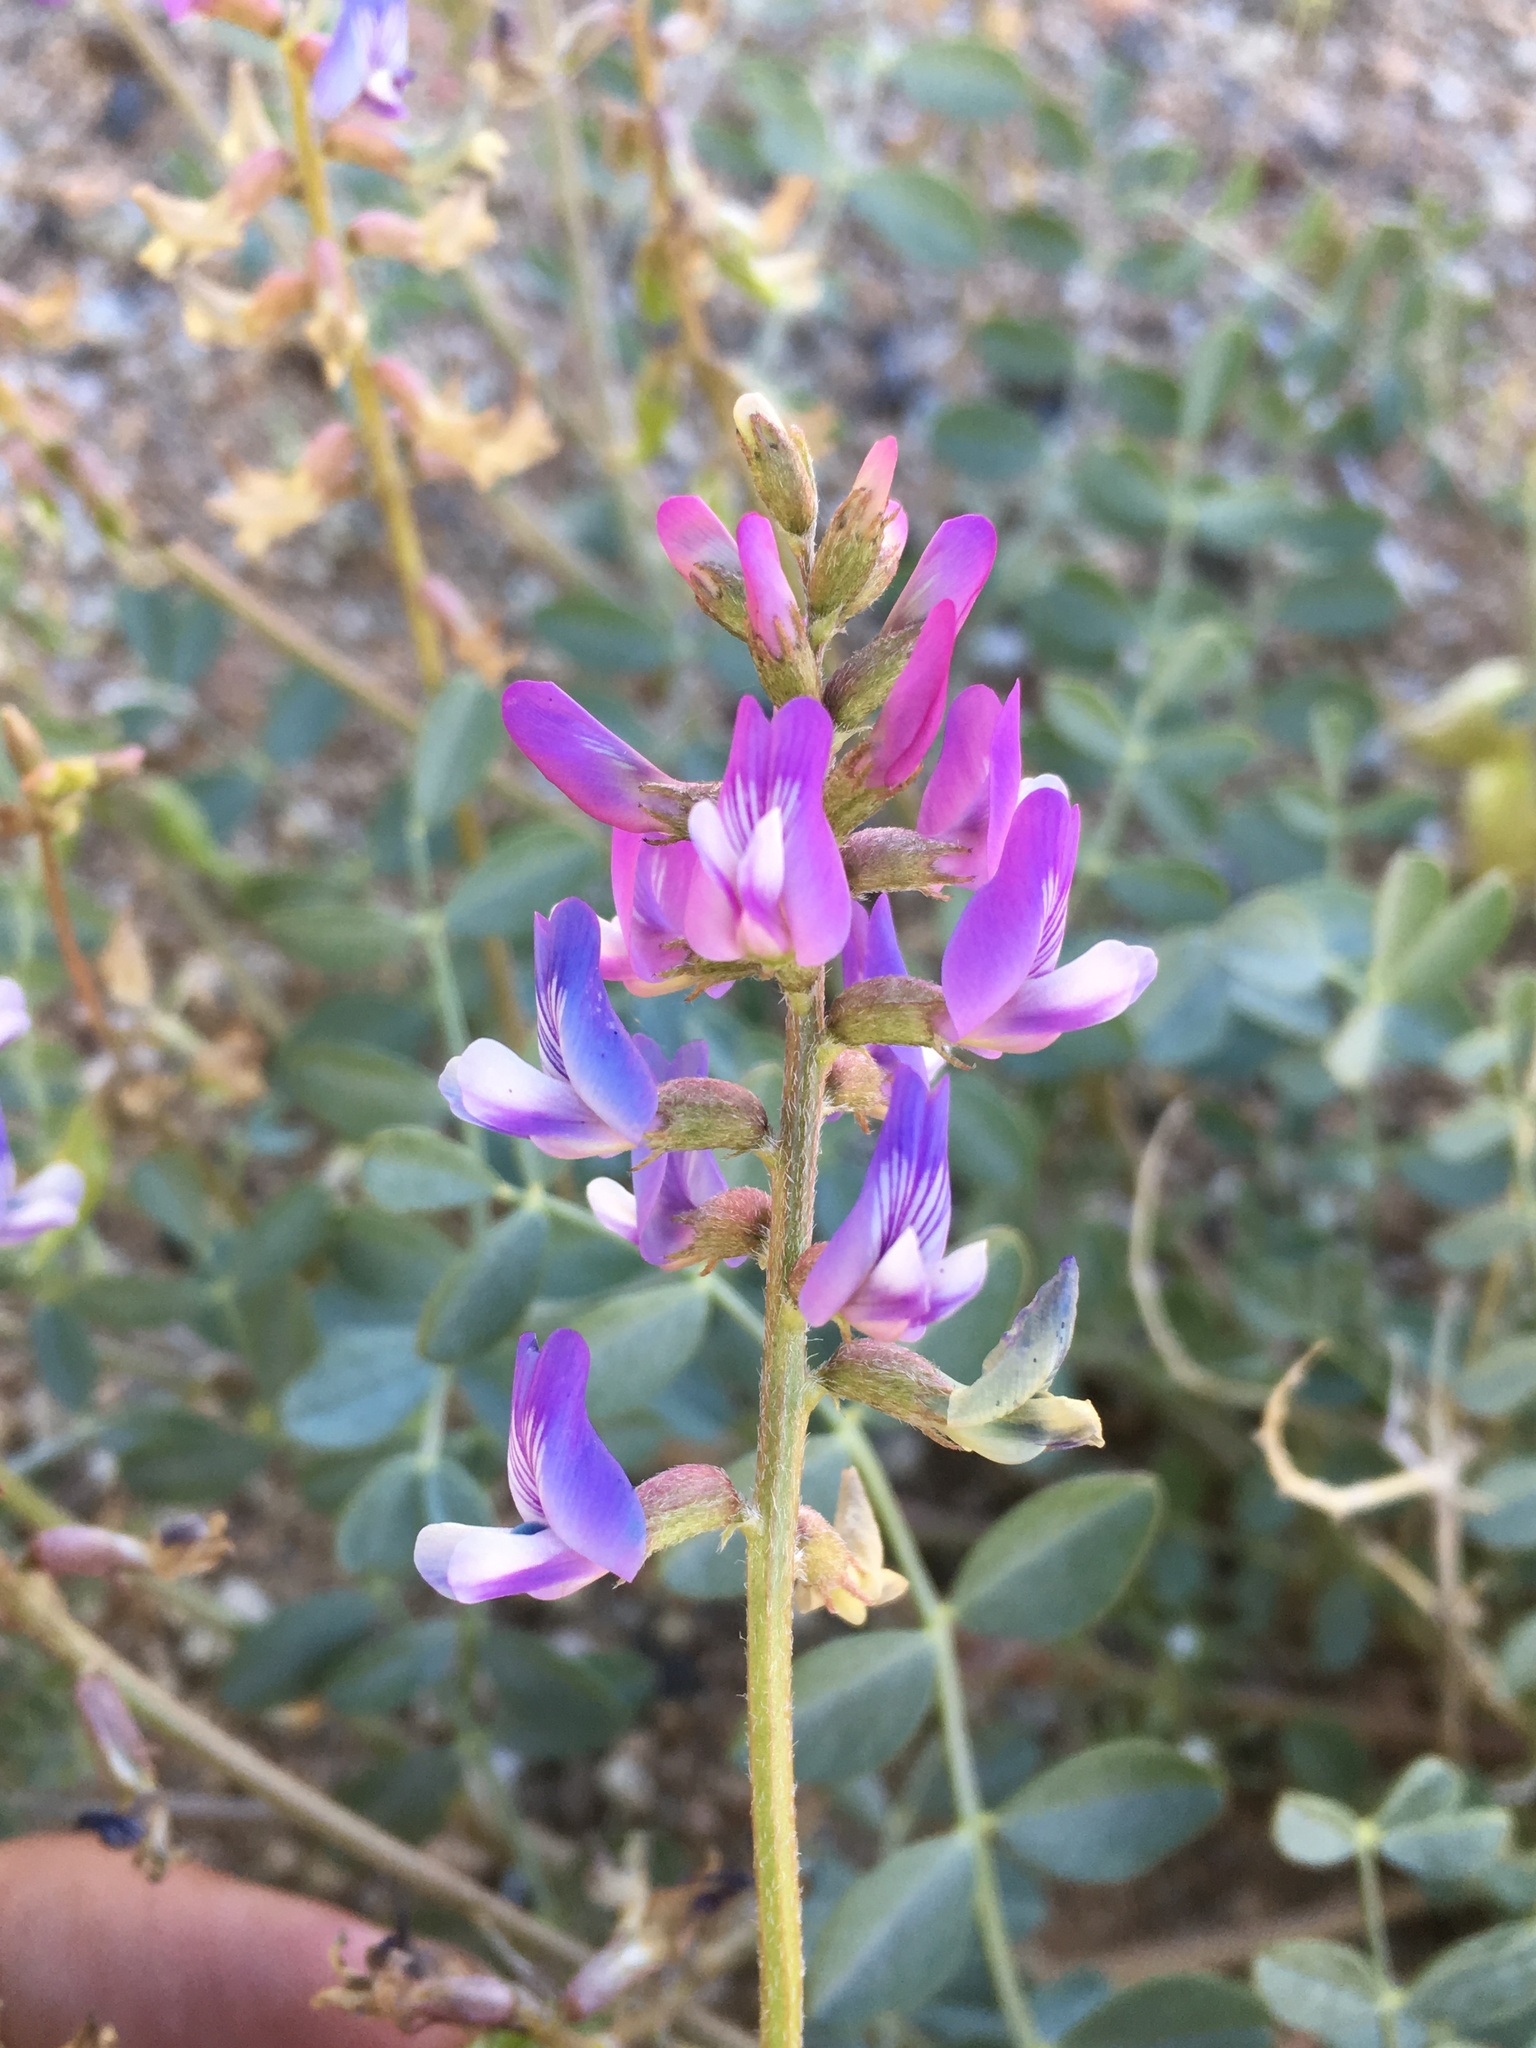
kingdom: Plantae
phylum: Tracheophyta
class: Magnoliopsida
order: Fabales
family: Fabaceae
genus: Astragalus
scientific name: Astragalus lentiginosus
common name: Freckled milkvetch
